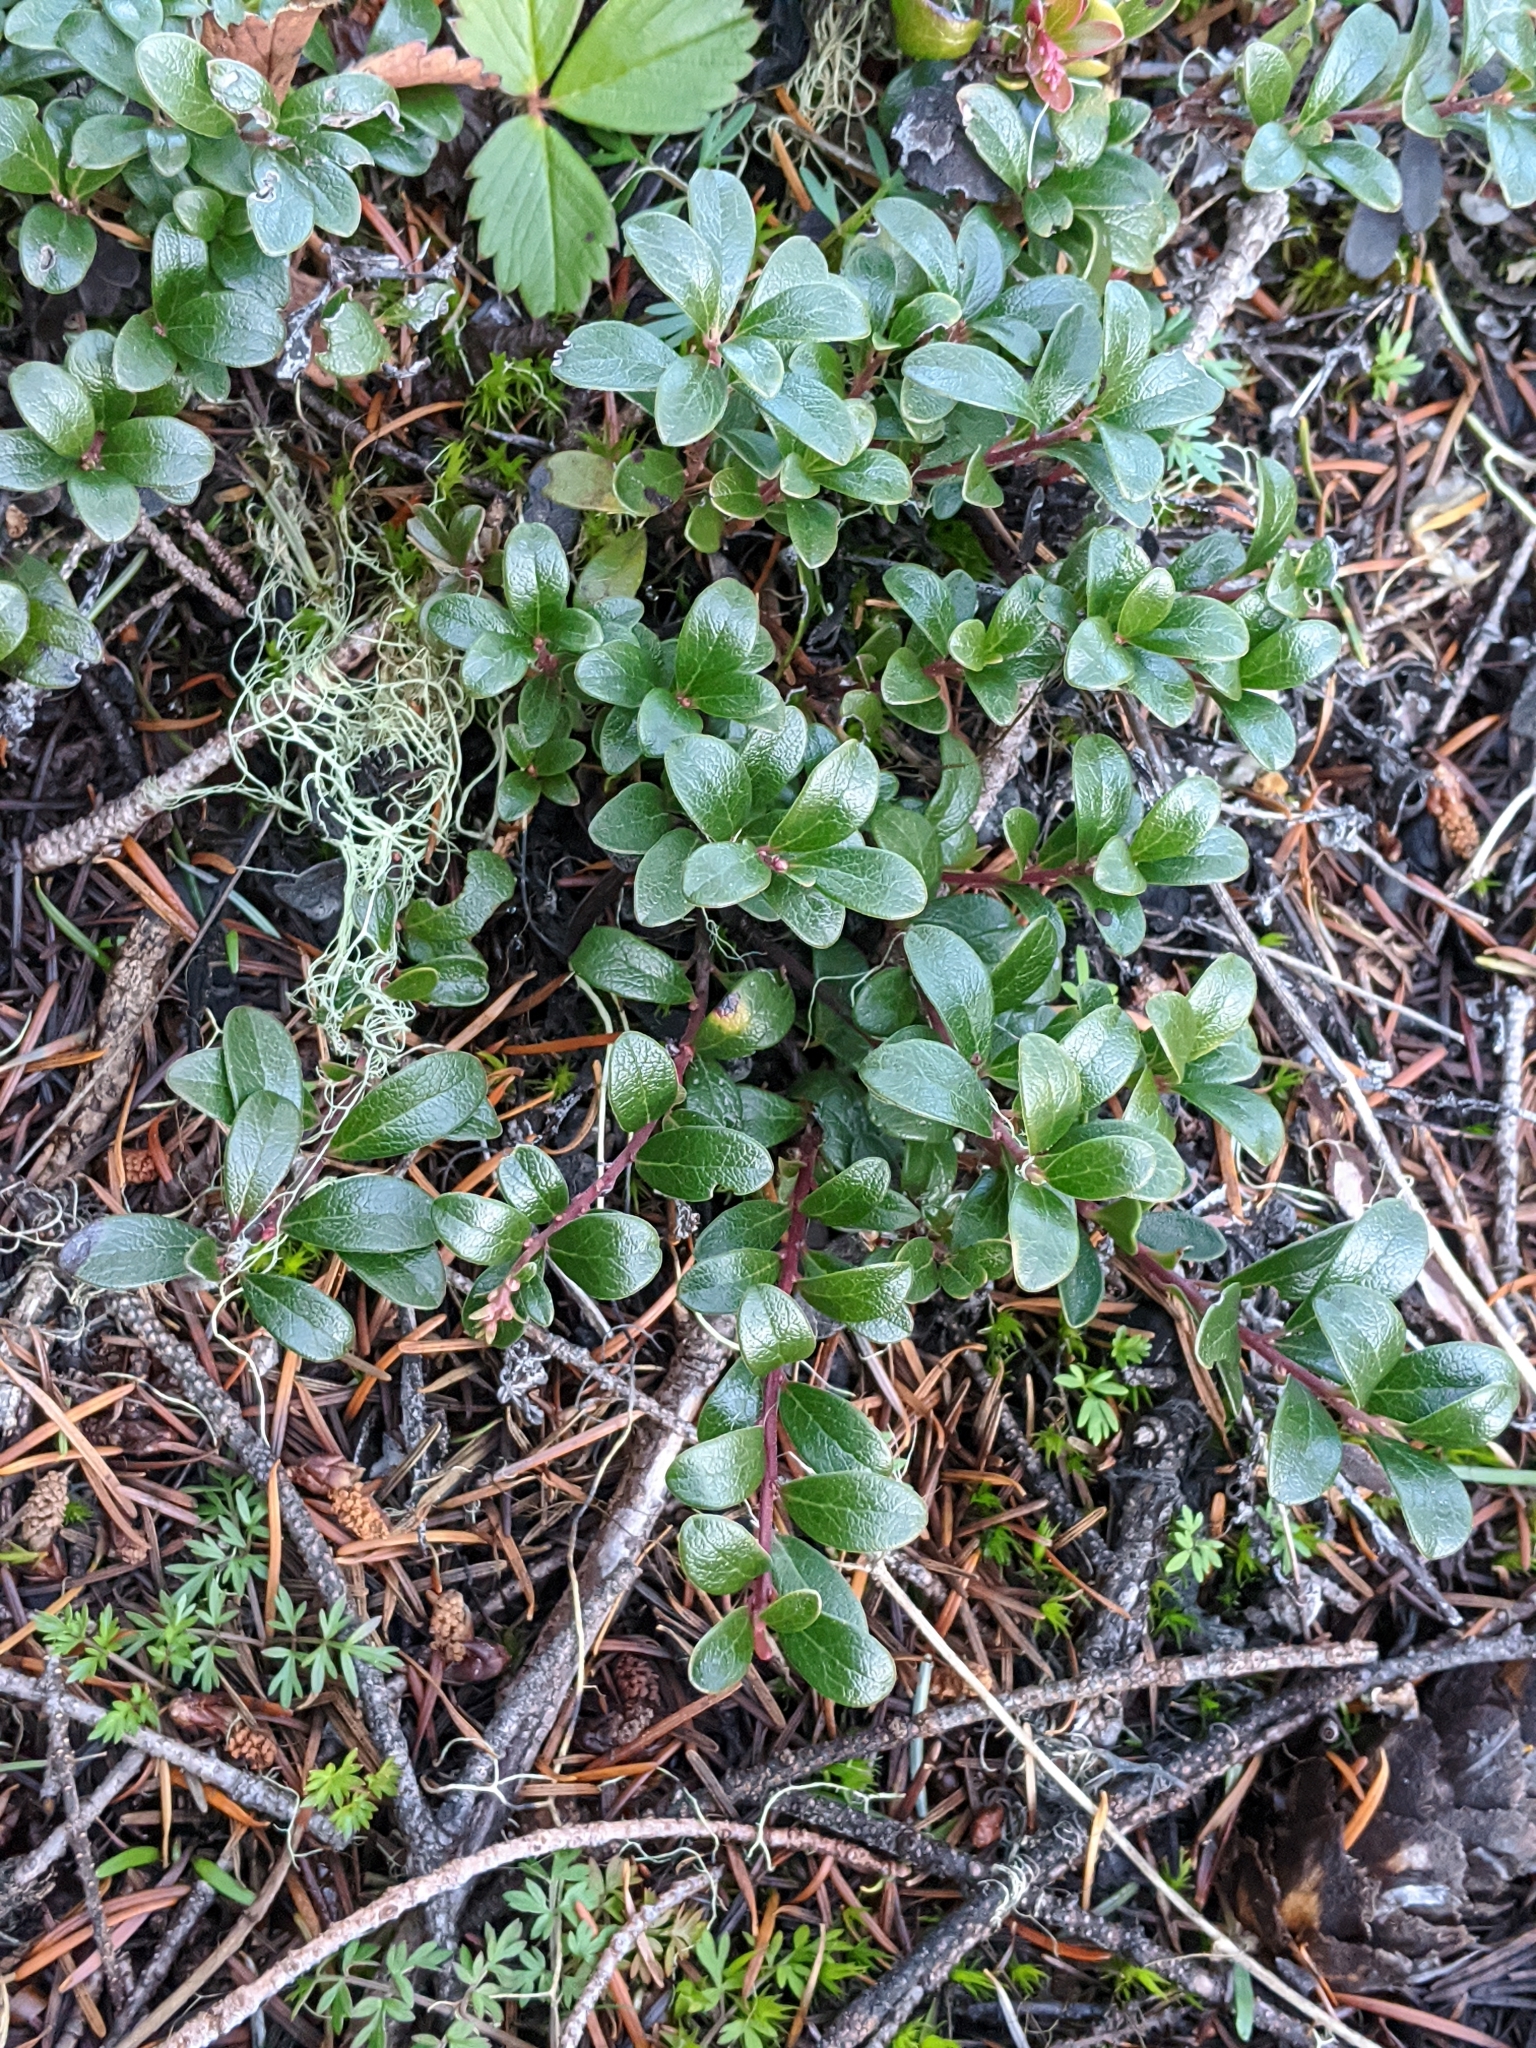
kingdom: Plantae
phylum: Tracheophyta
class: Magnoliopsida
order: Ericales
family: Ericaceae
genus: Arctostaphylos
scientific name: Arctostaphylos uva-ursi
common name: Bearberry
